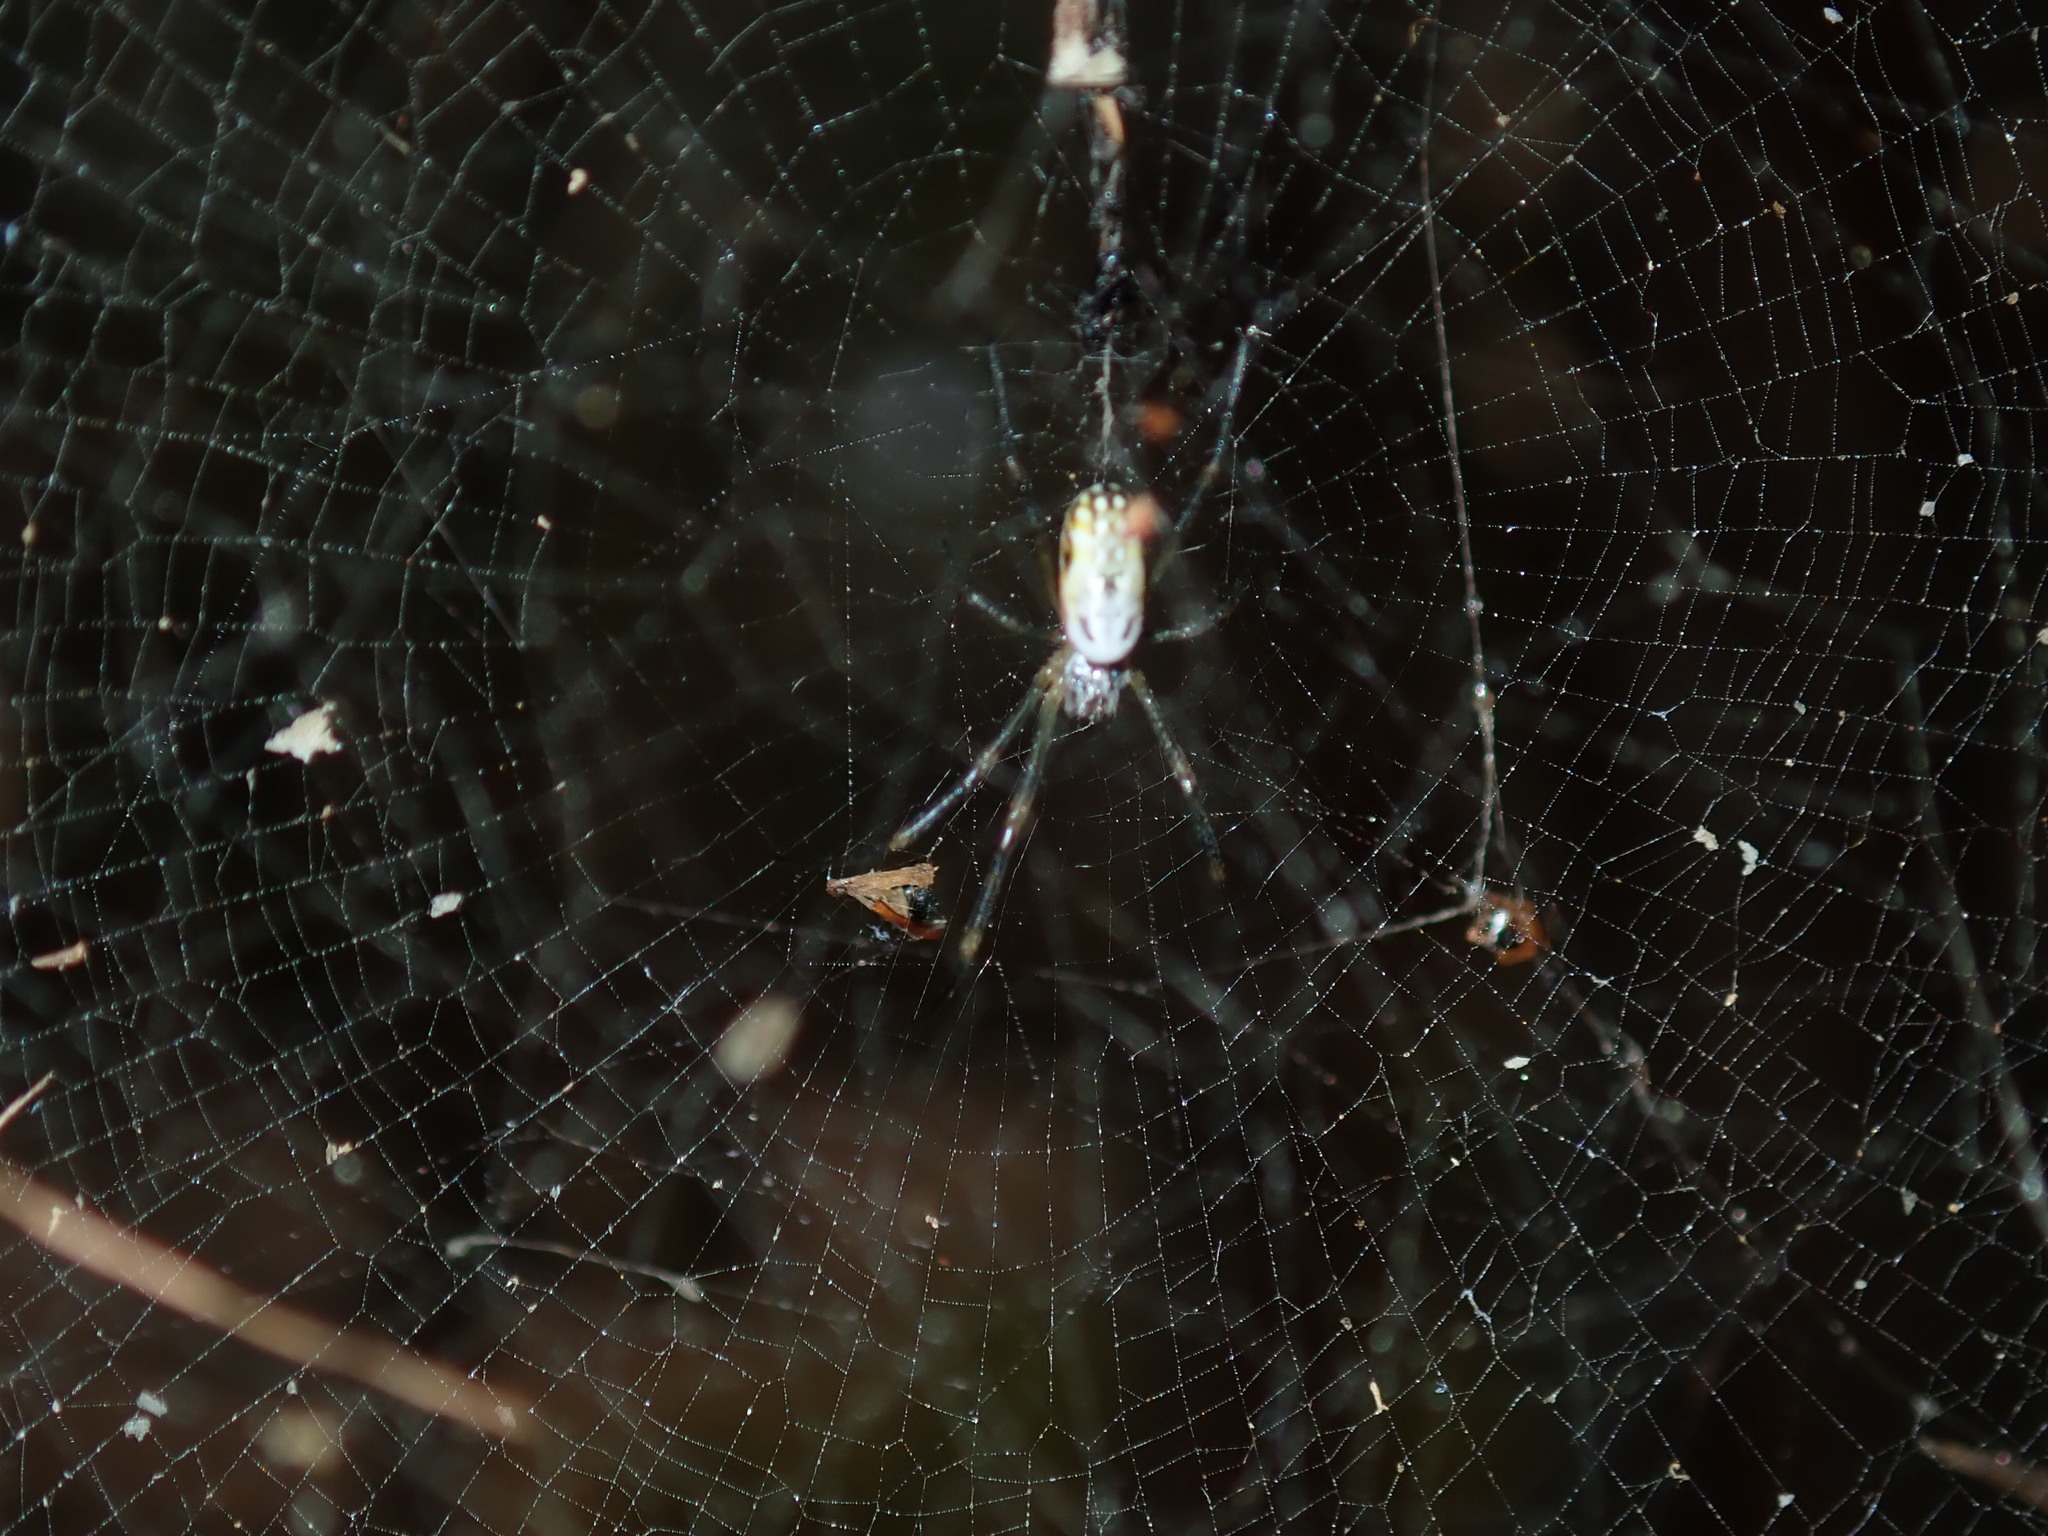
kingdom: Animalia
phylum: Arthropoda
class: Arachnida
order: Araneae
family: Araneidae
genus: Trichonephila
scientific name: Trichonephila plumipes
